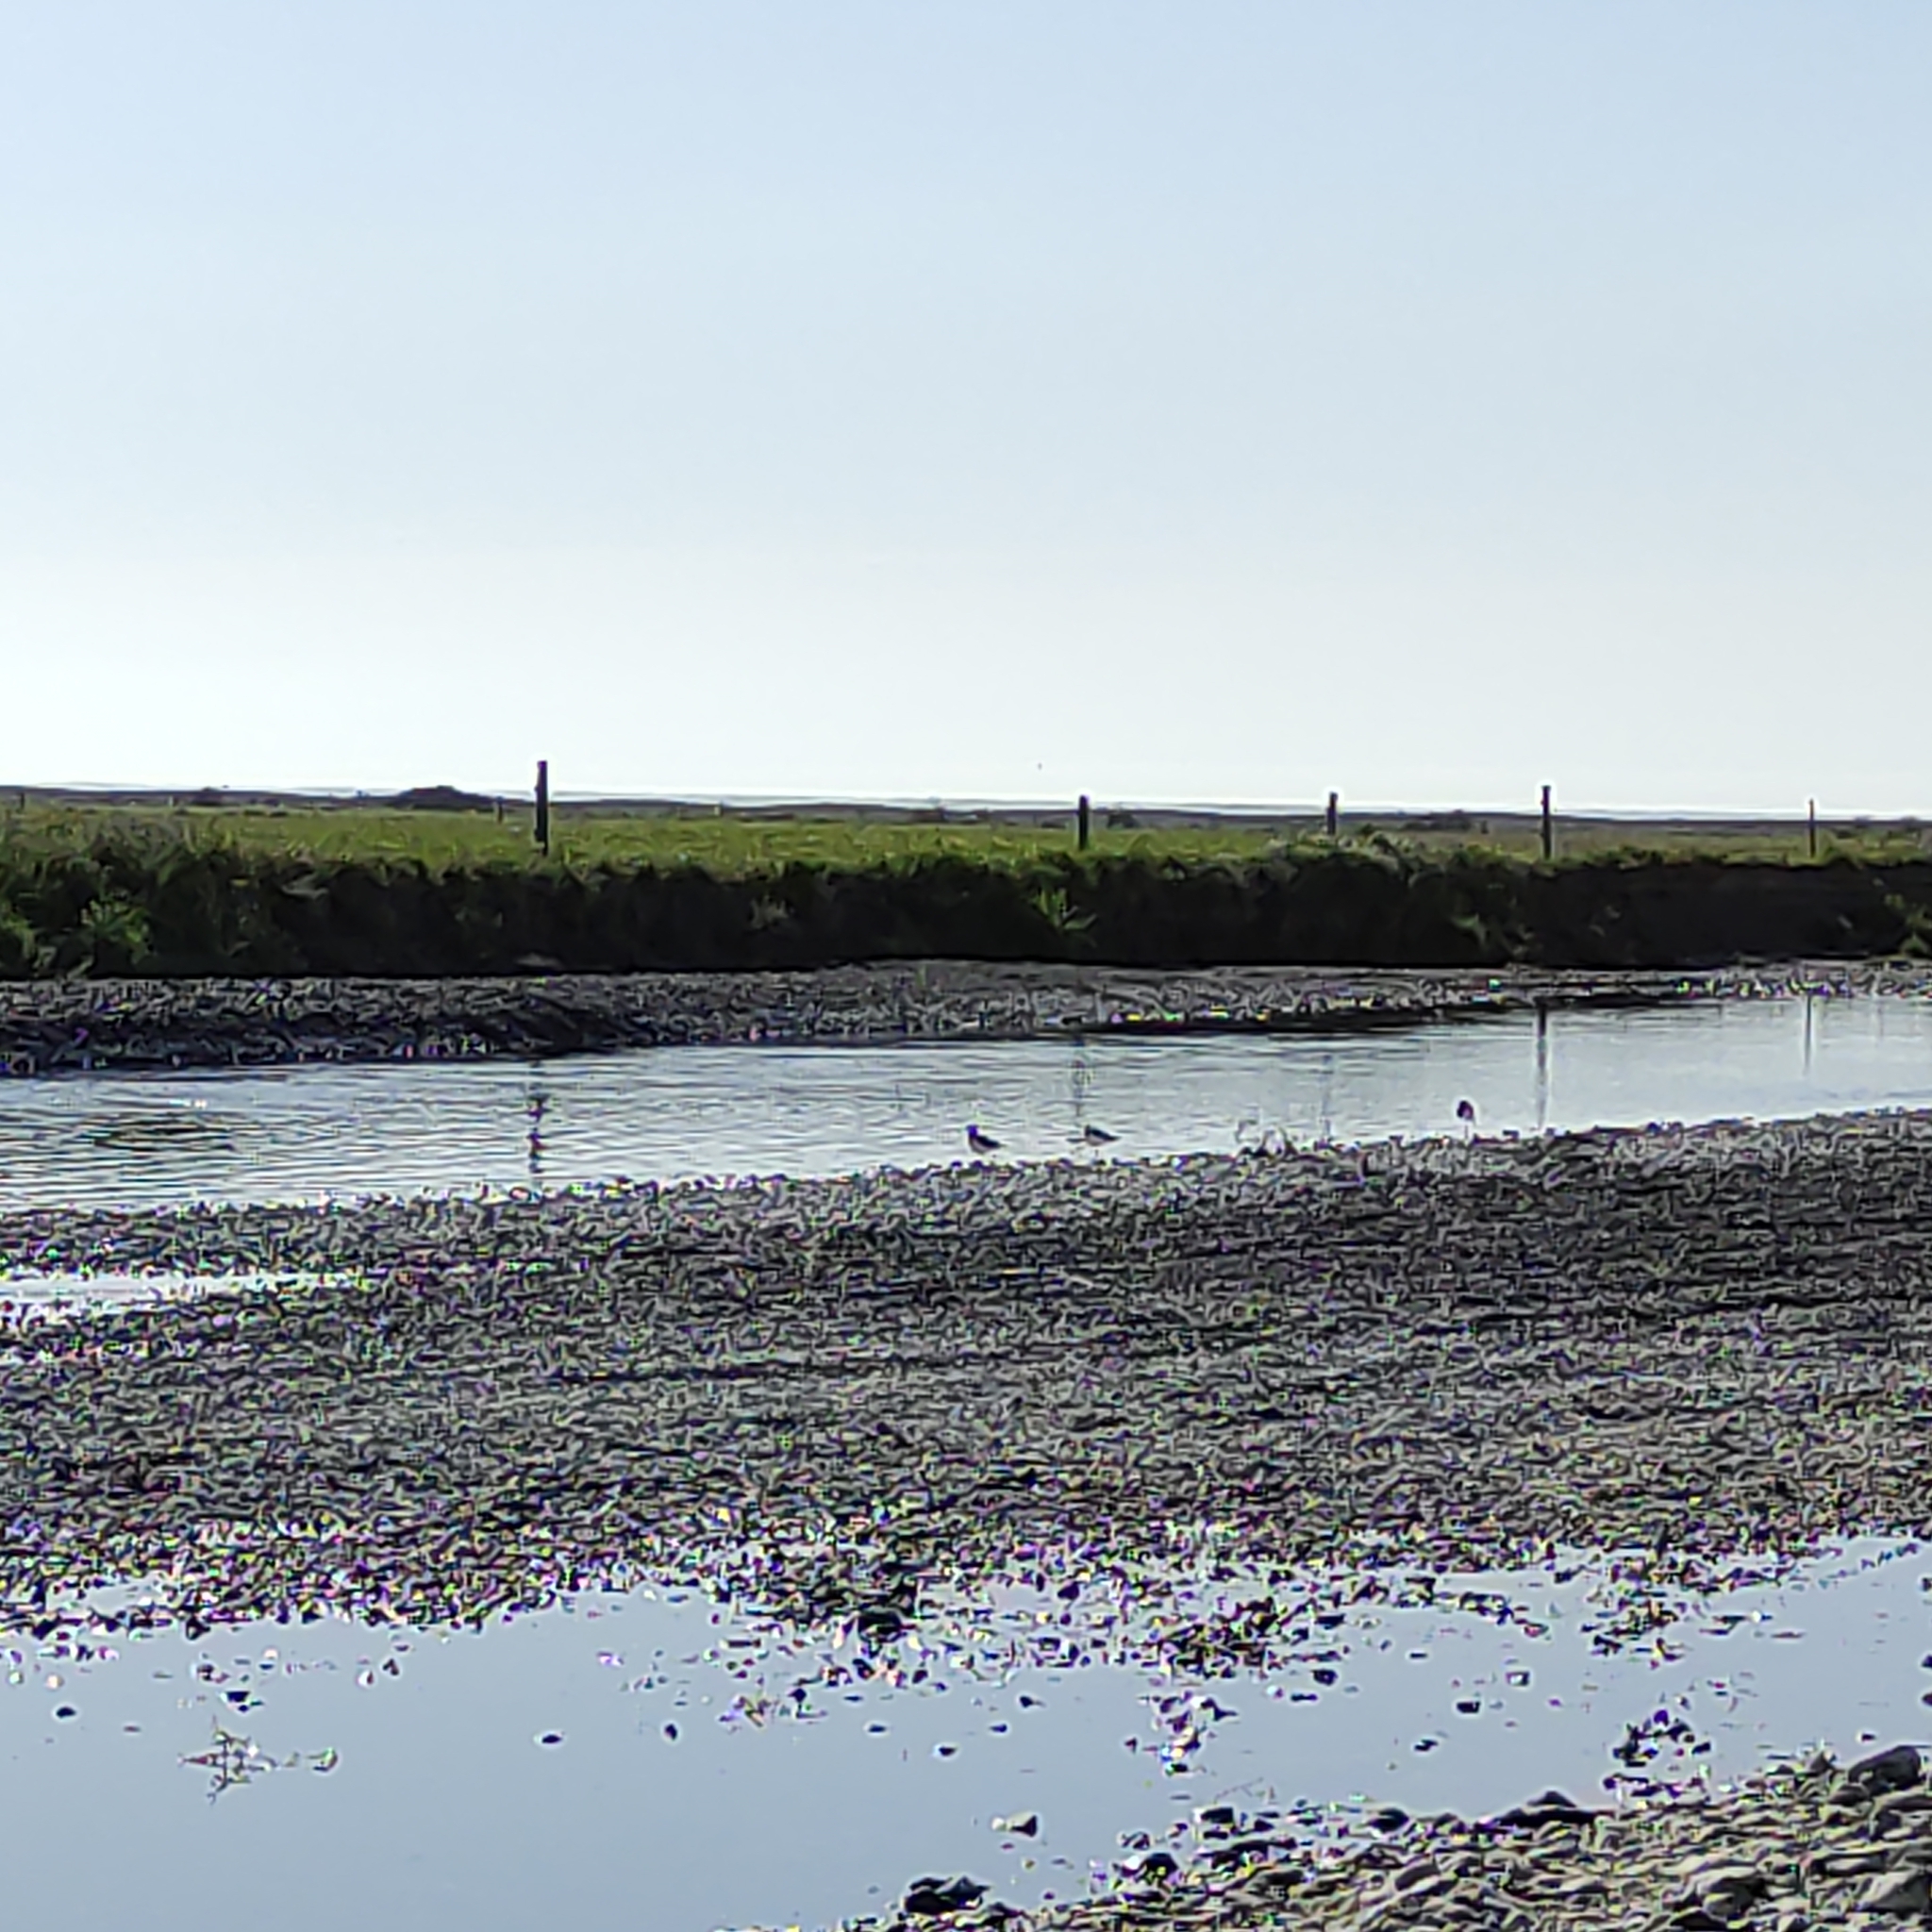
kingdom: Animalia
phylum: Chordata
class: Aves
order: Charadriiformes
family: Recurvirostridae
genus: Himantopus
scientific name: Himantopus leucocephalus
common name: White-headed stilt
